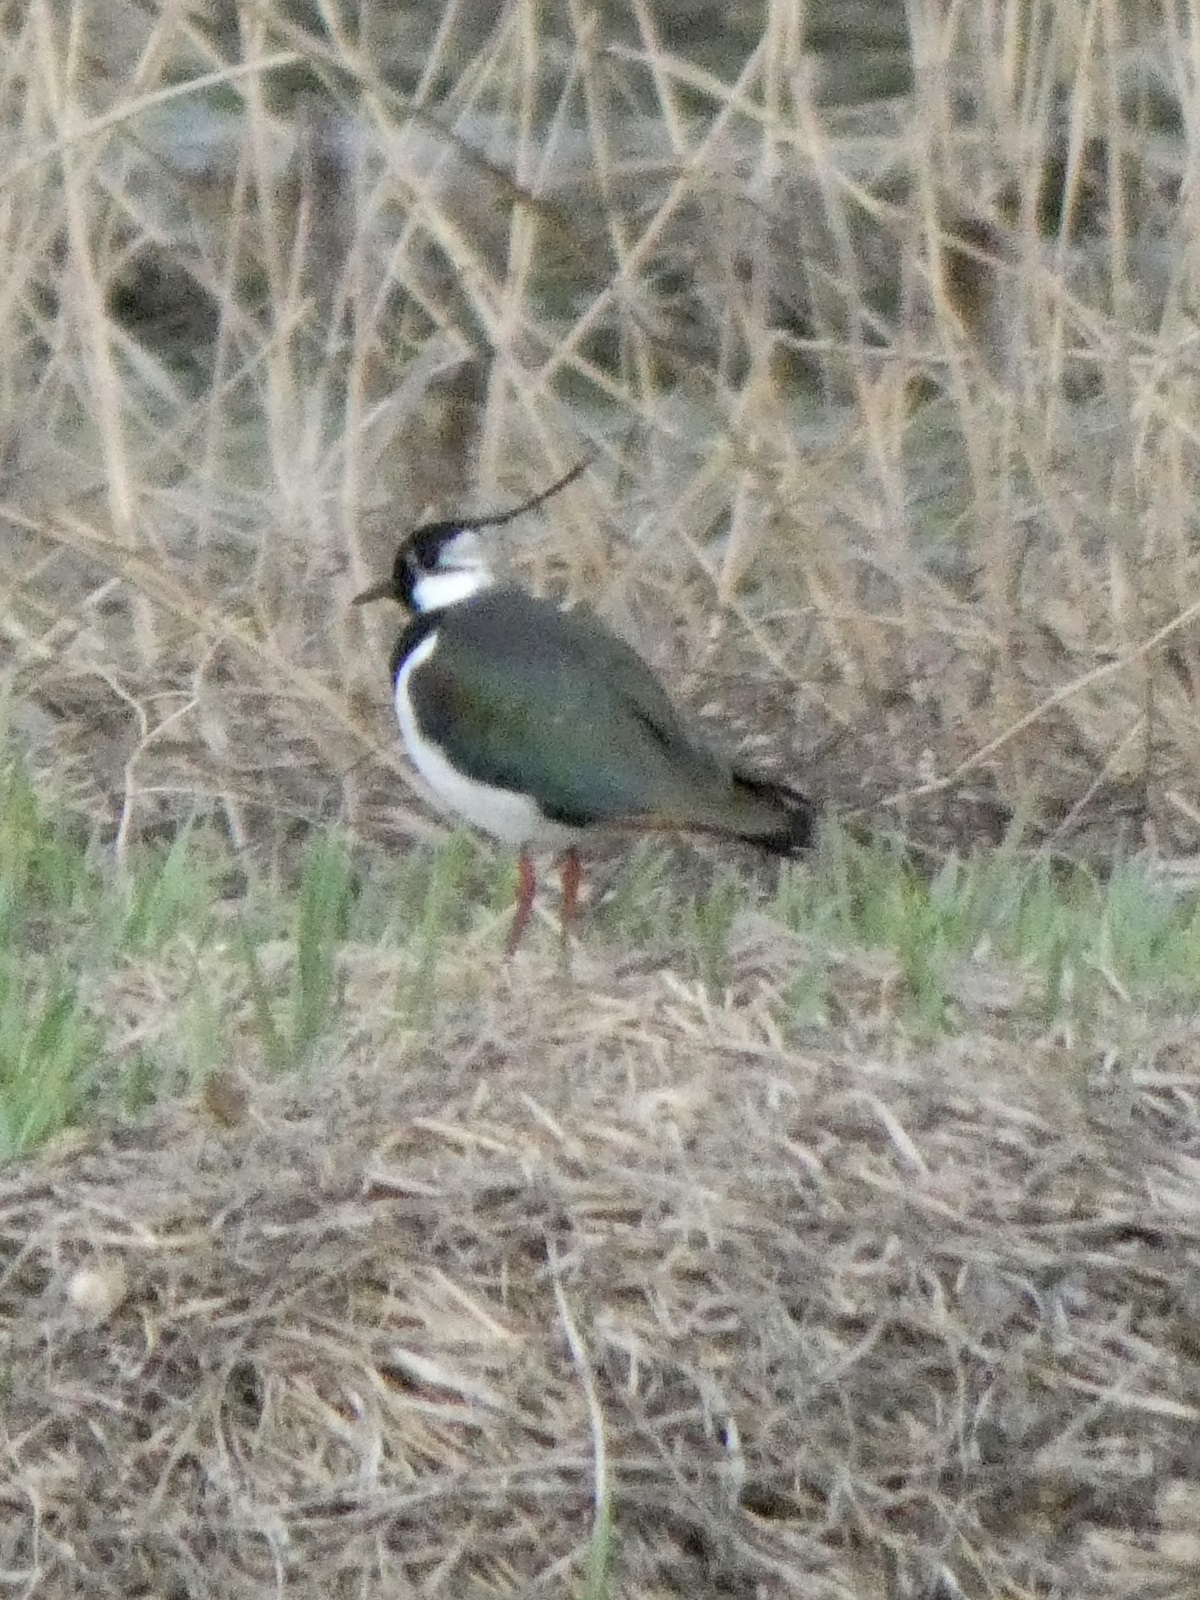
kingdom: Animalia
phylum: Chordata
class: Aves
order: Charadriiformes
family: Charadriidae
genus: Vanellus
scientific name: Vanellus vanellus
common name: Northern lapwing
